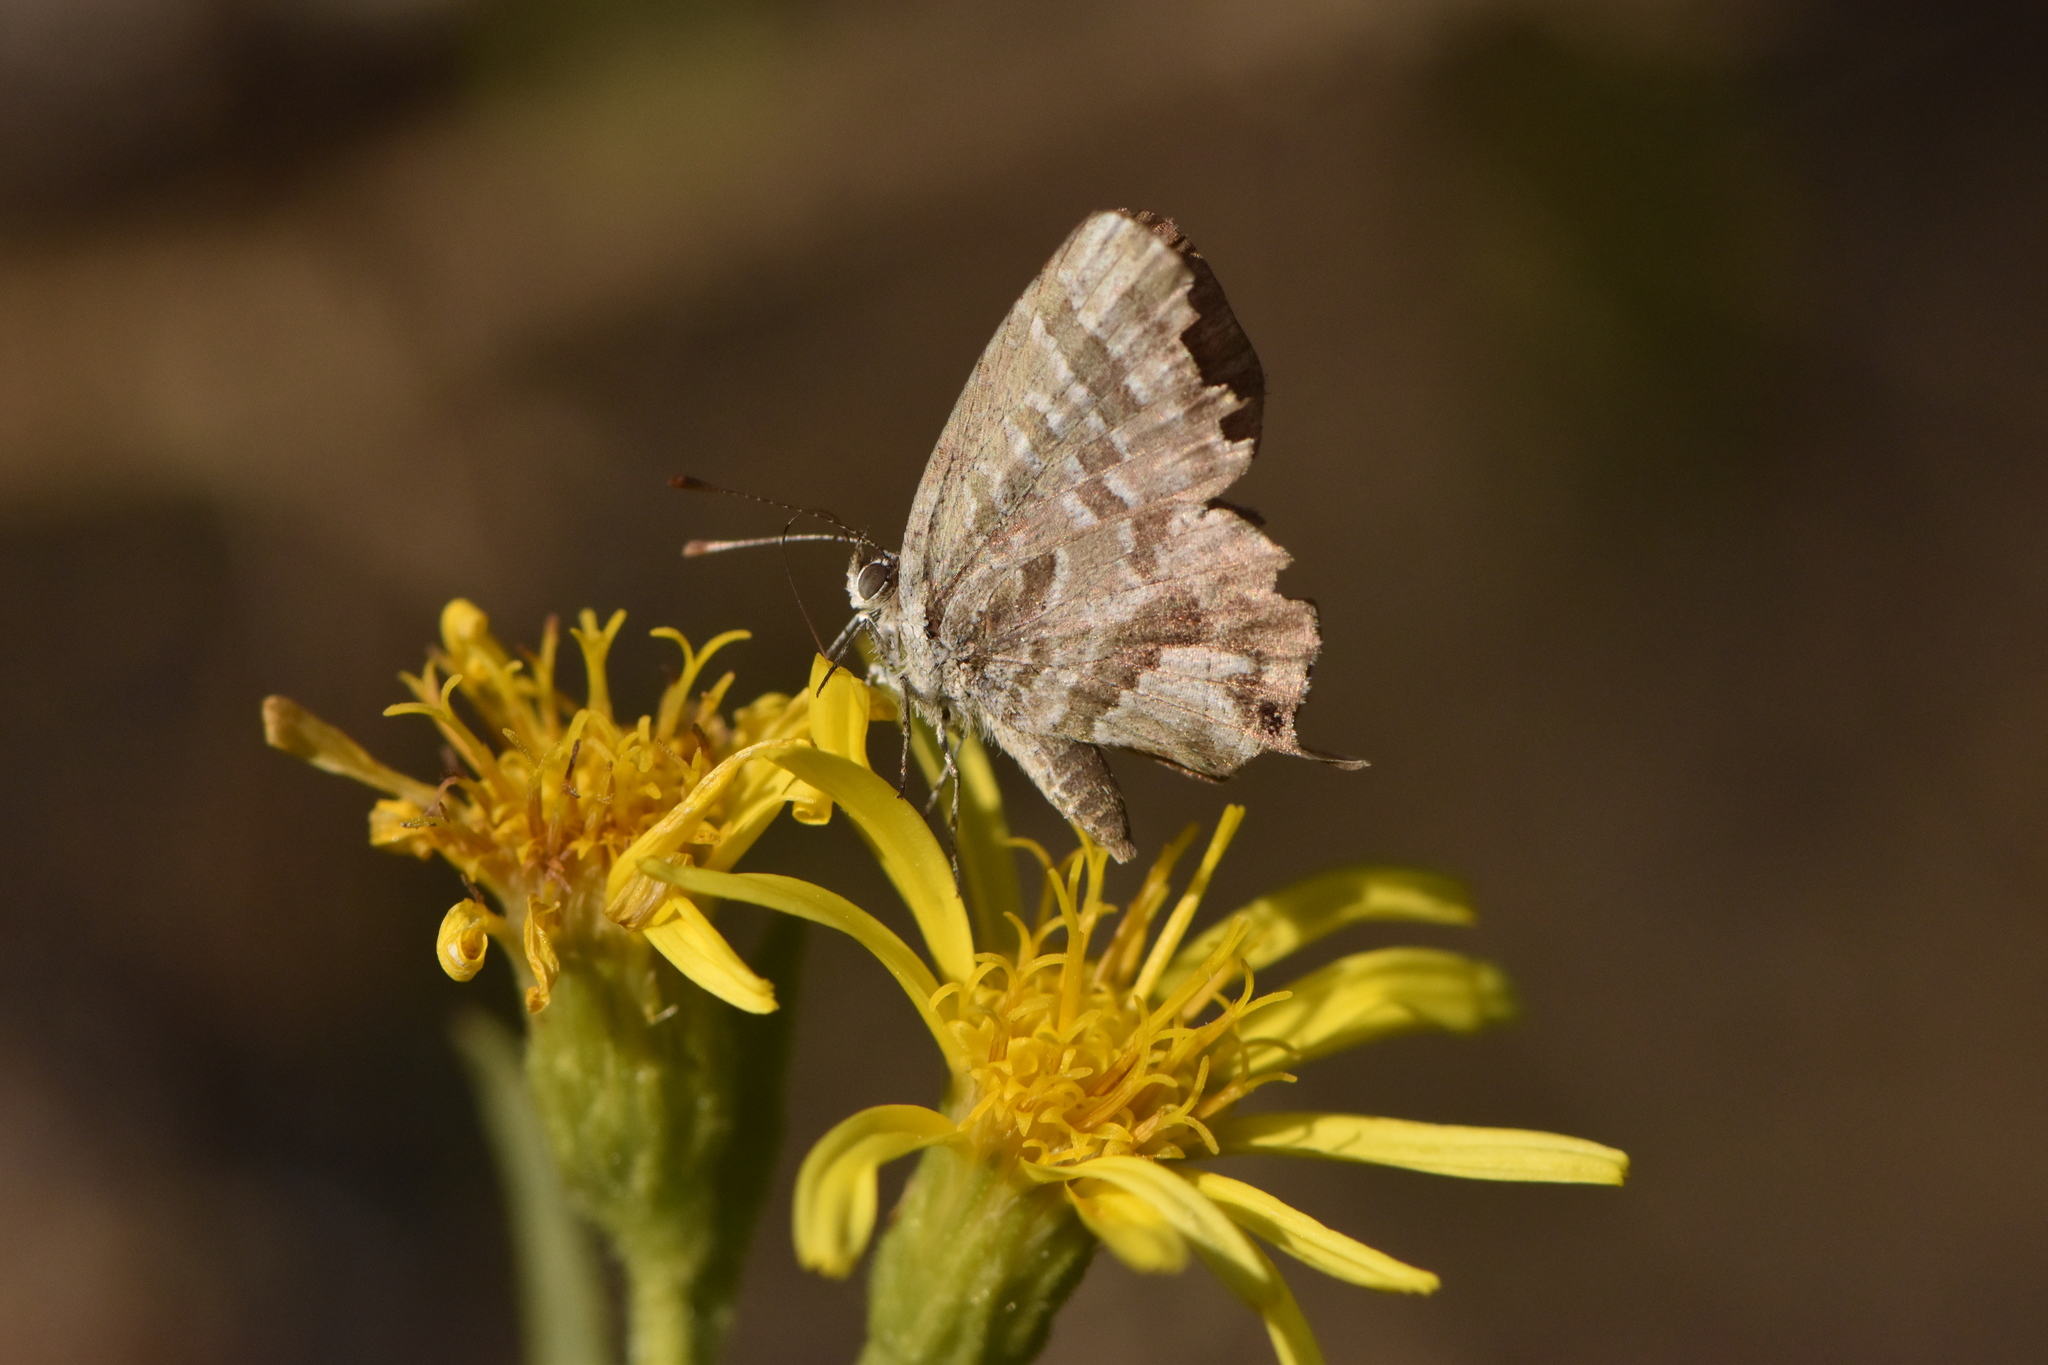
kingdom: Animalia
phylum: Arthropoda
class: Insecta
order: Lepidoptera
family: Lycaenidae
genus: Cacyreus
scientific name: Cacyreus marshalli
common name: Geranium bronze
